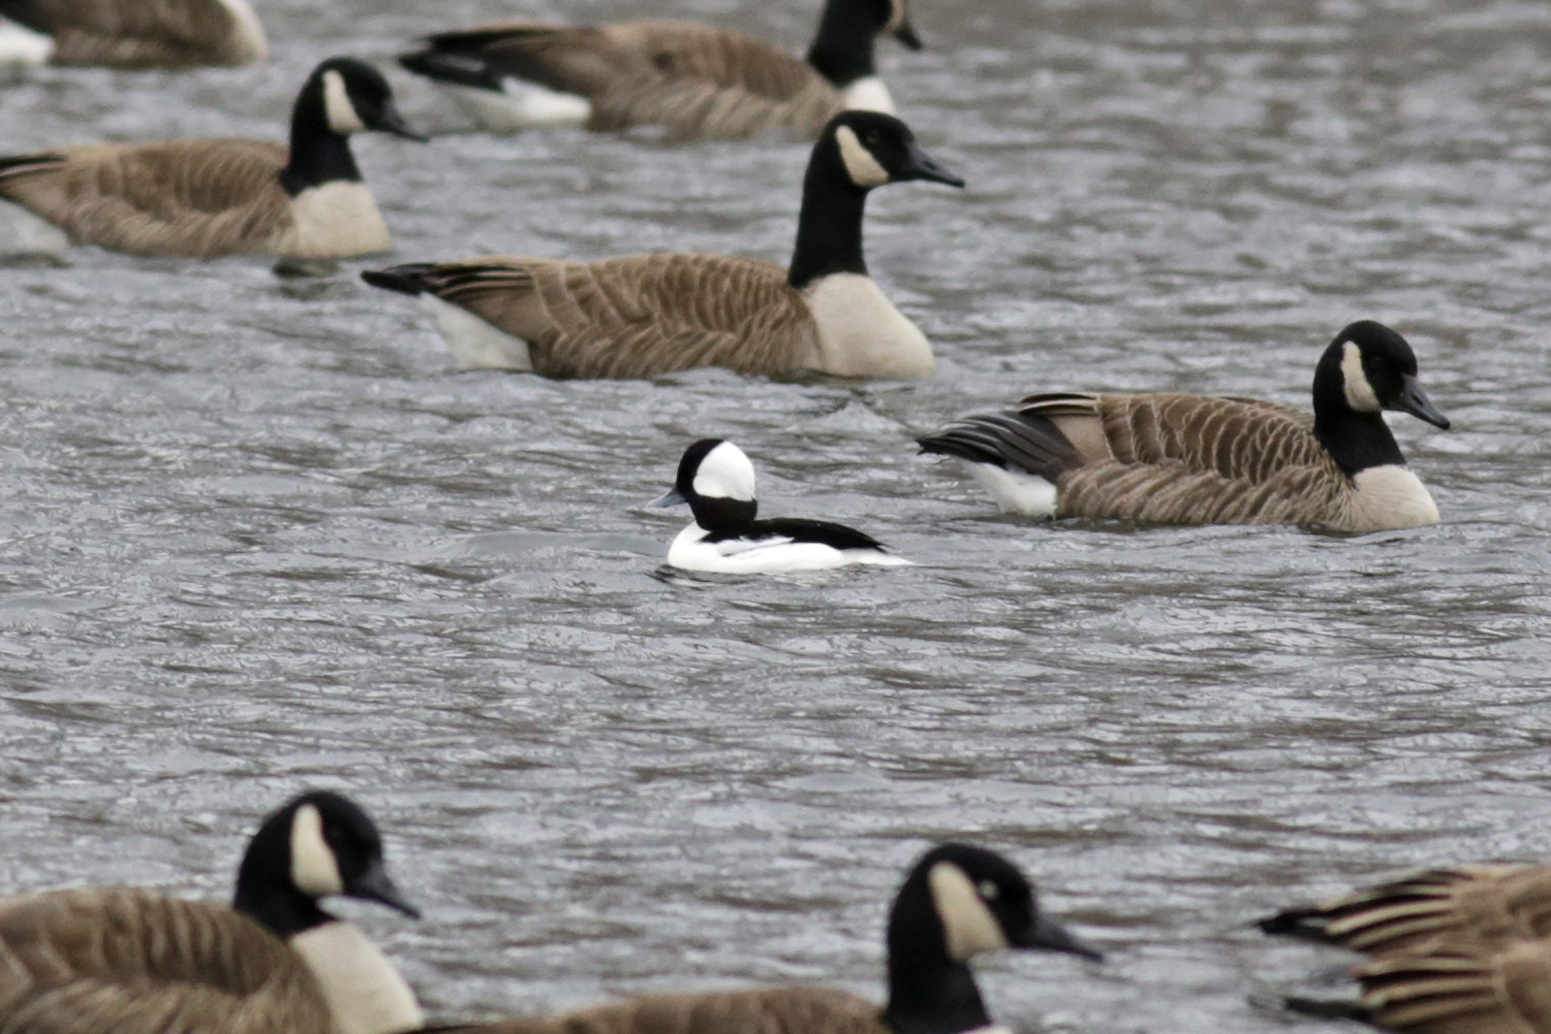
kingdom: Animalia
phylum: Chordata
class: Aves
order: Anseriformes
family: Anatidae
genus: Bucephala
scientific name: Bucephala albeola
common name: Bufflehead
